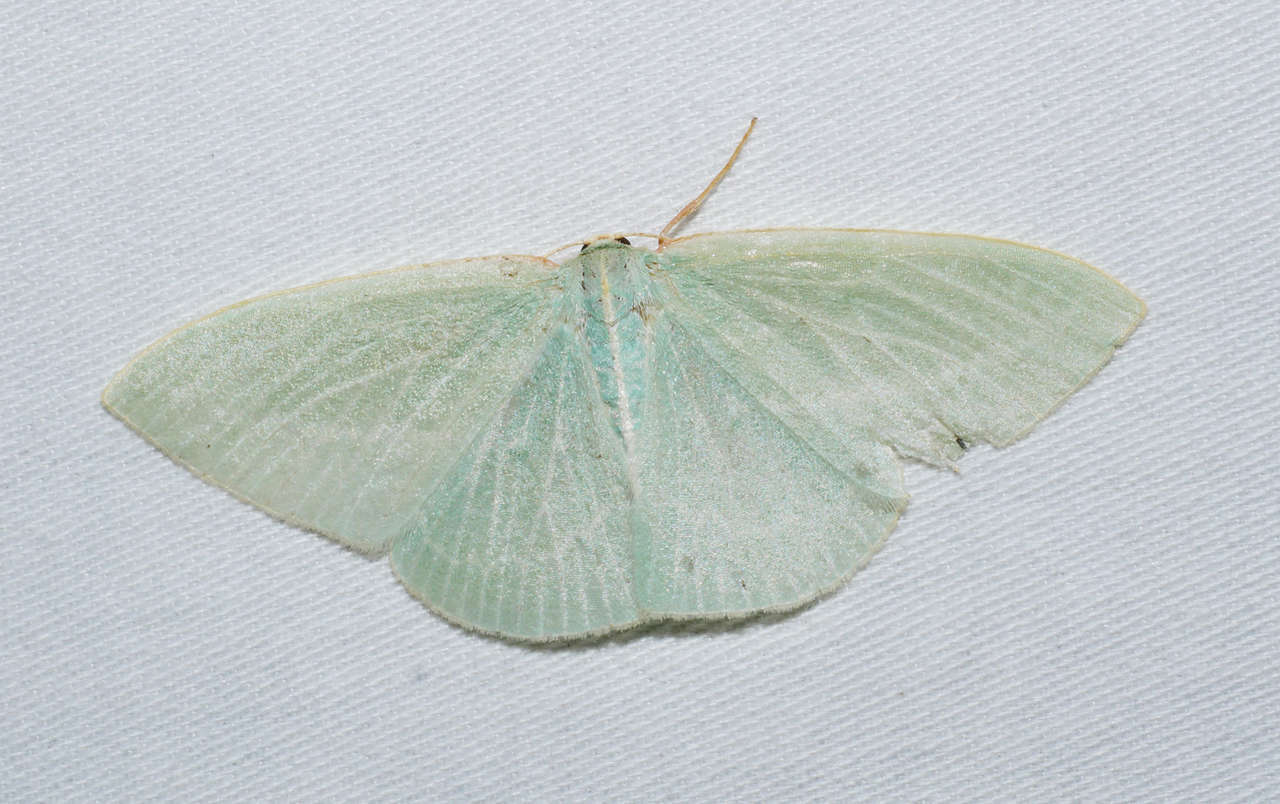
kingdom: Animalia
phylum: Arthropoda
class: Insecta
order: Lepidoptera
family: Geometridae
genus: Chlorocoma
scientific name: Chlorocoma carenaria
